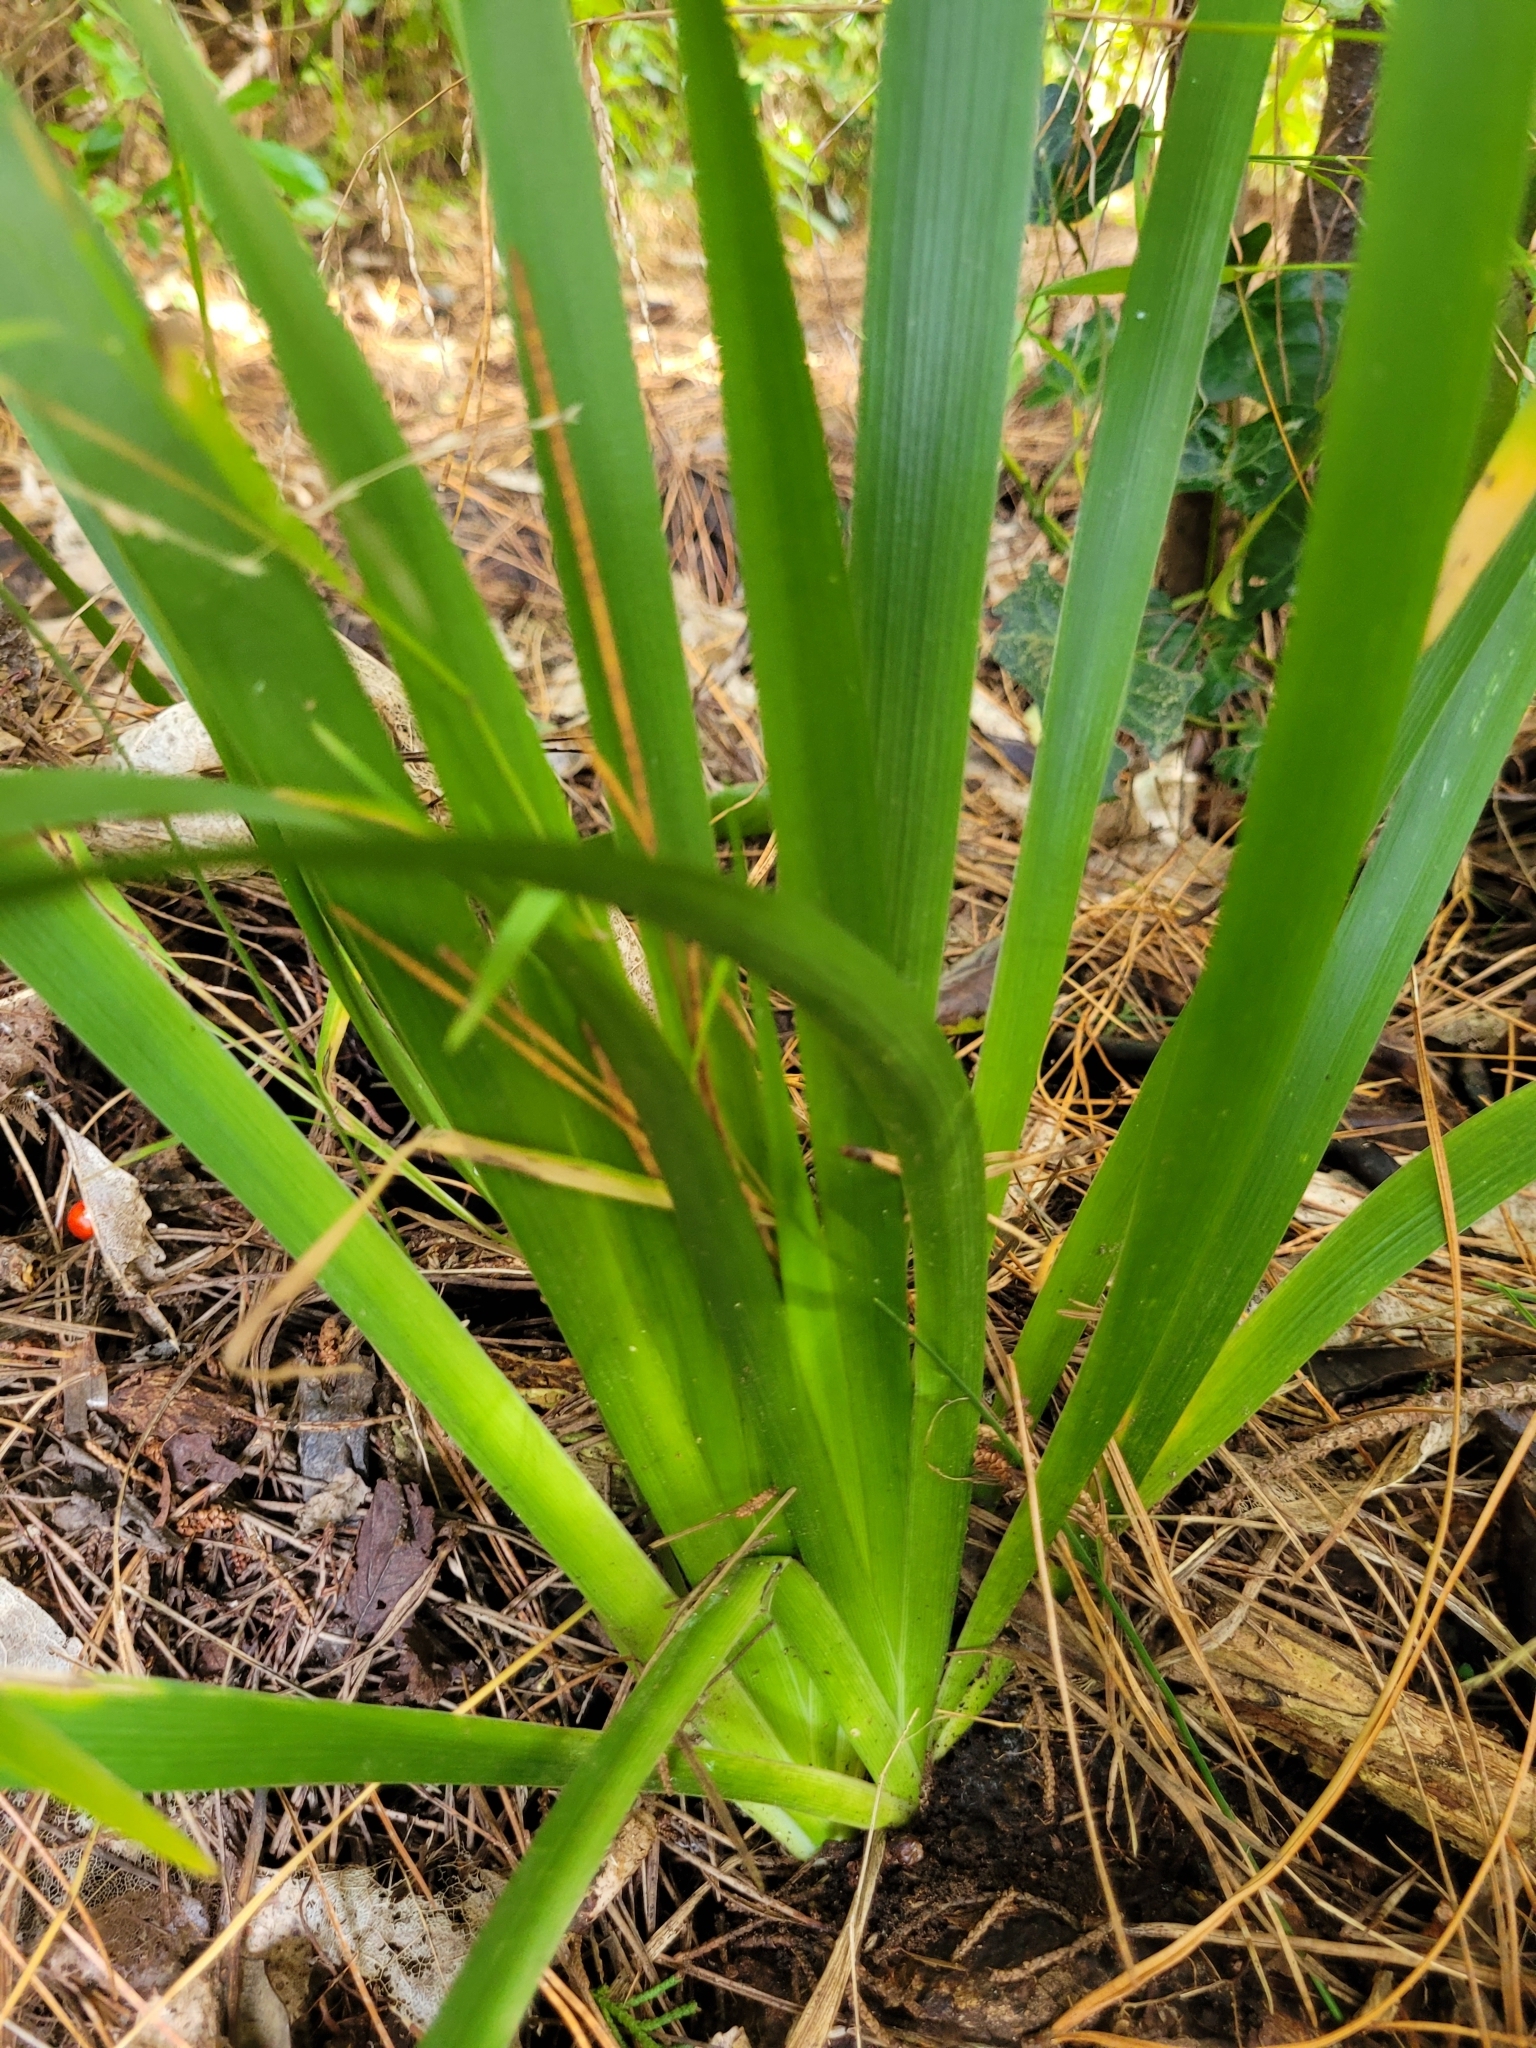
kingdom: Plantae
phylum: Tracheophyta
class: Liliopsida
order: Asparagales
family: Iridaceae
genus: Iris
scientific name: Iris foetidissima
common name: Stinking iris
